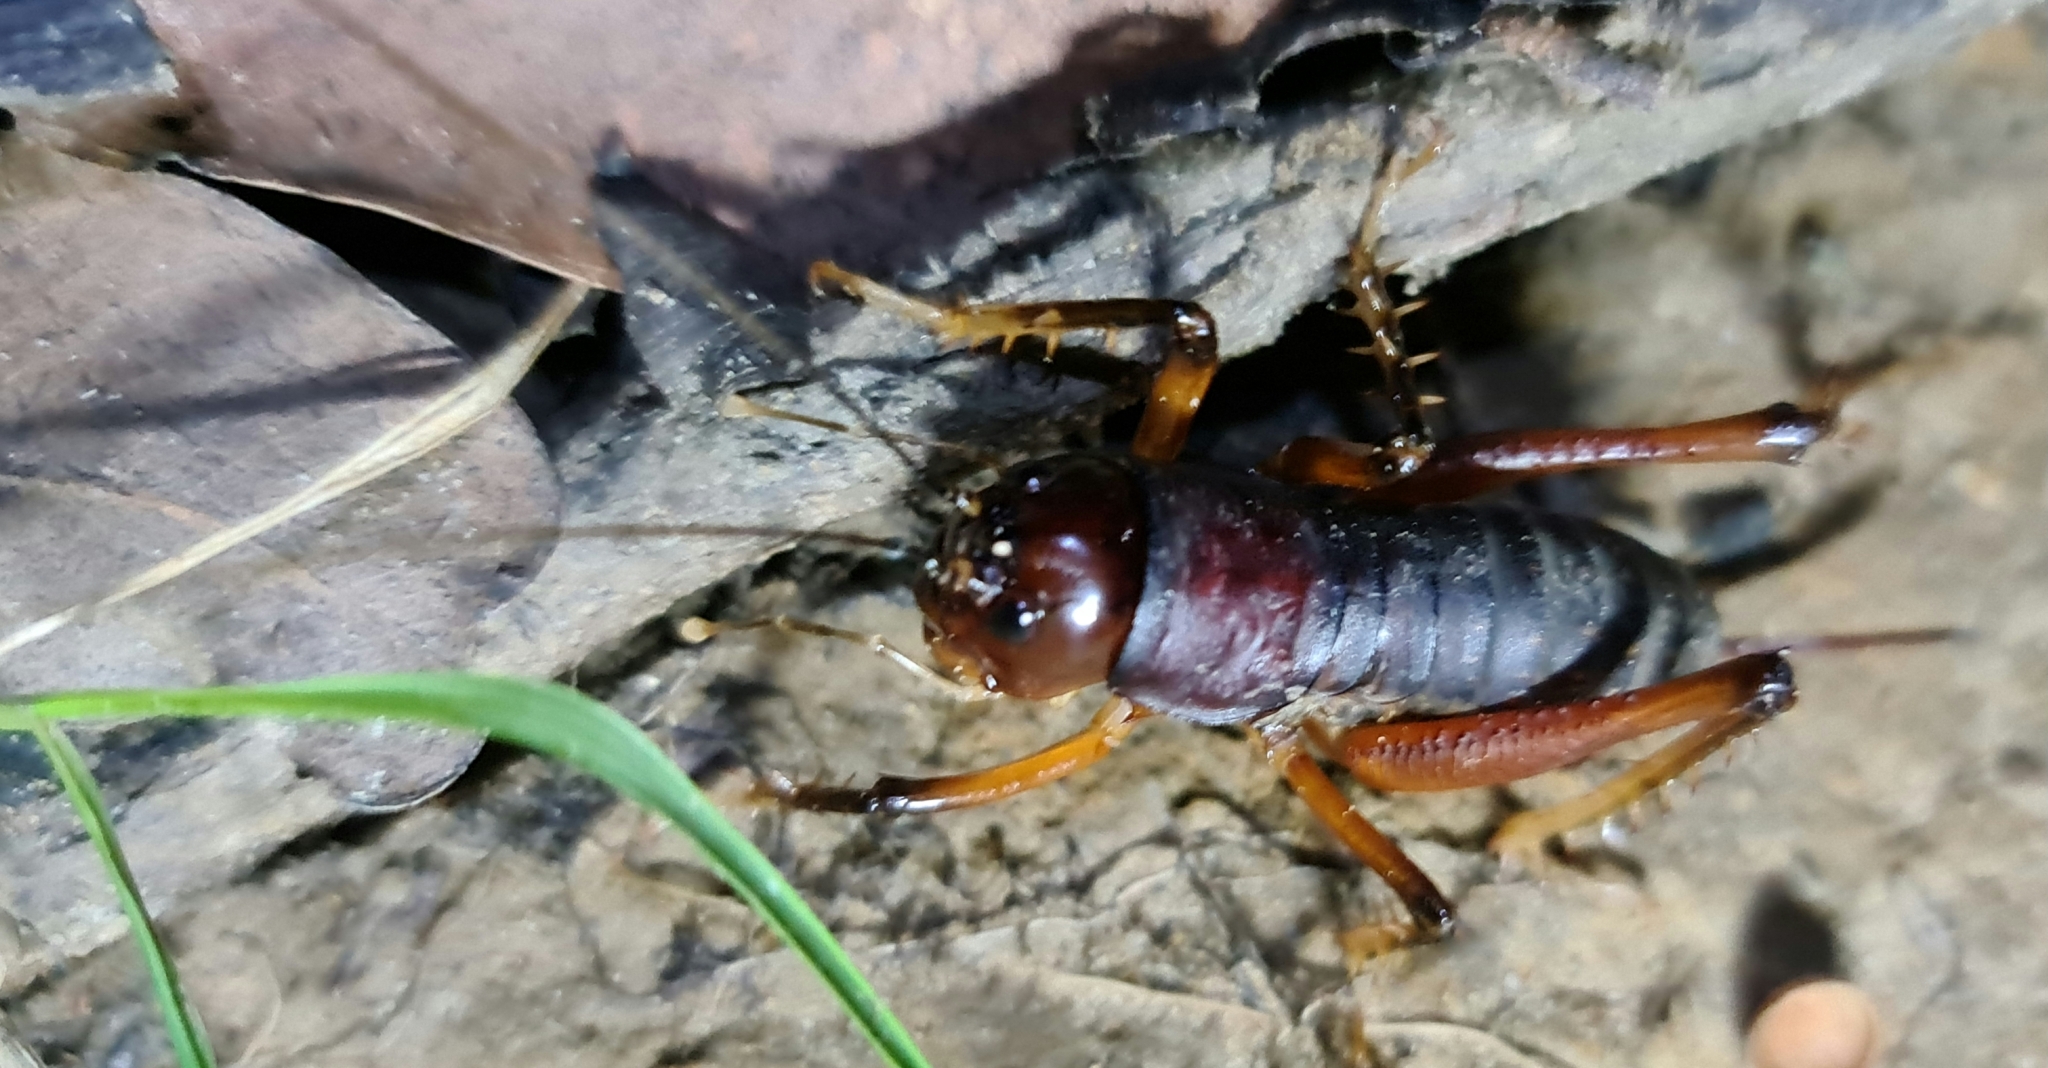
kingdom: Animalia
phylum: Arthropoda
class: Insecta
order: Orthoptera
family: Anostostomatidae
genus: Anostostoma
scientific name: Anostostoma opacum
